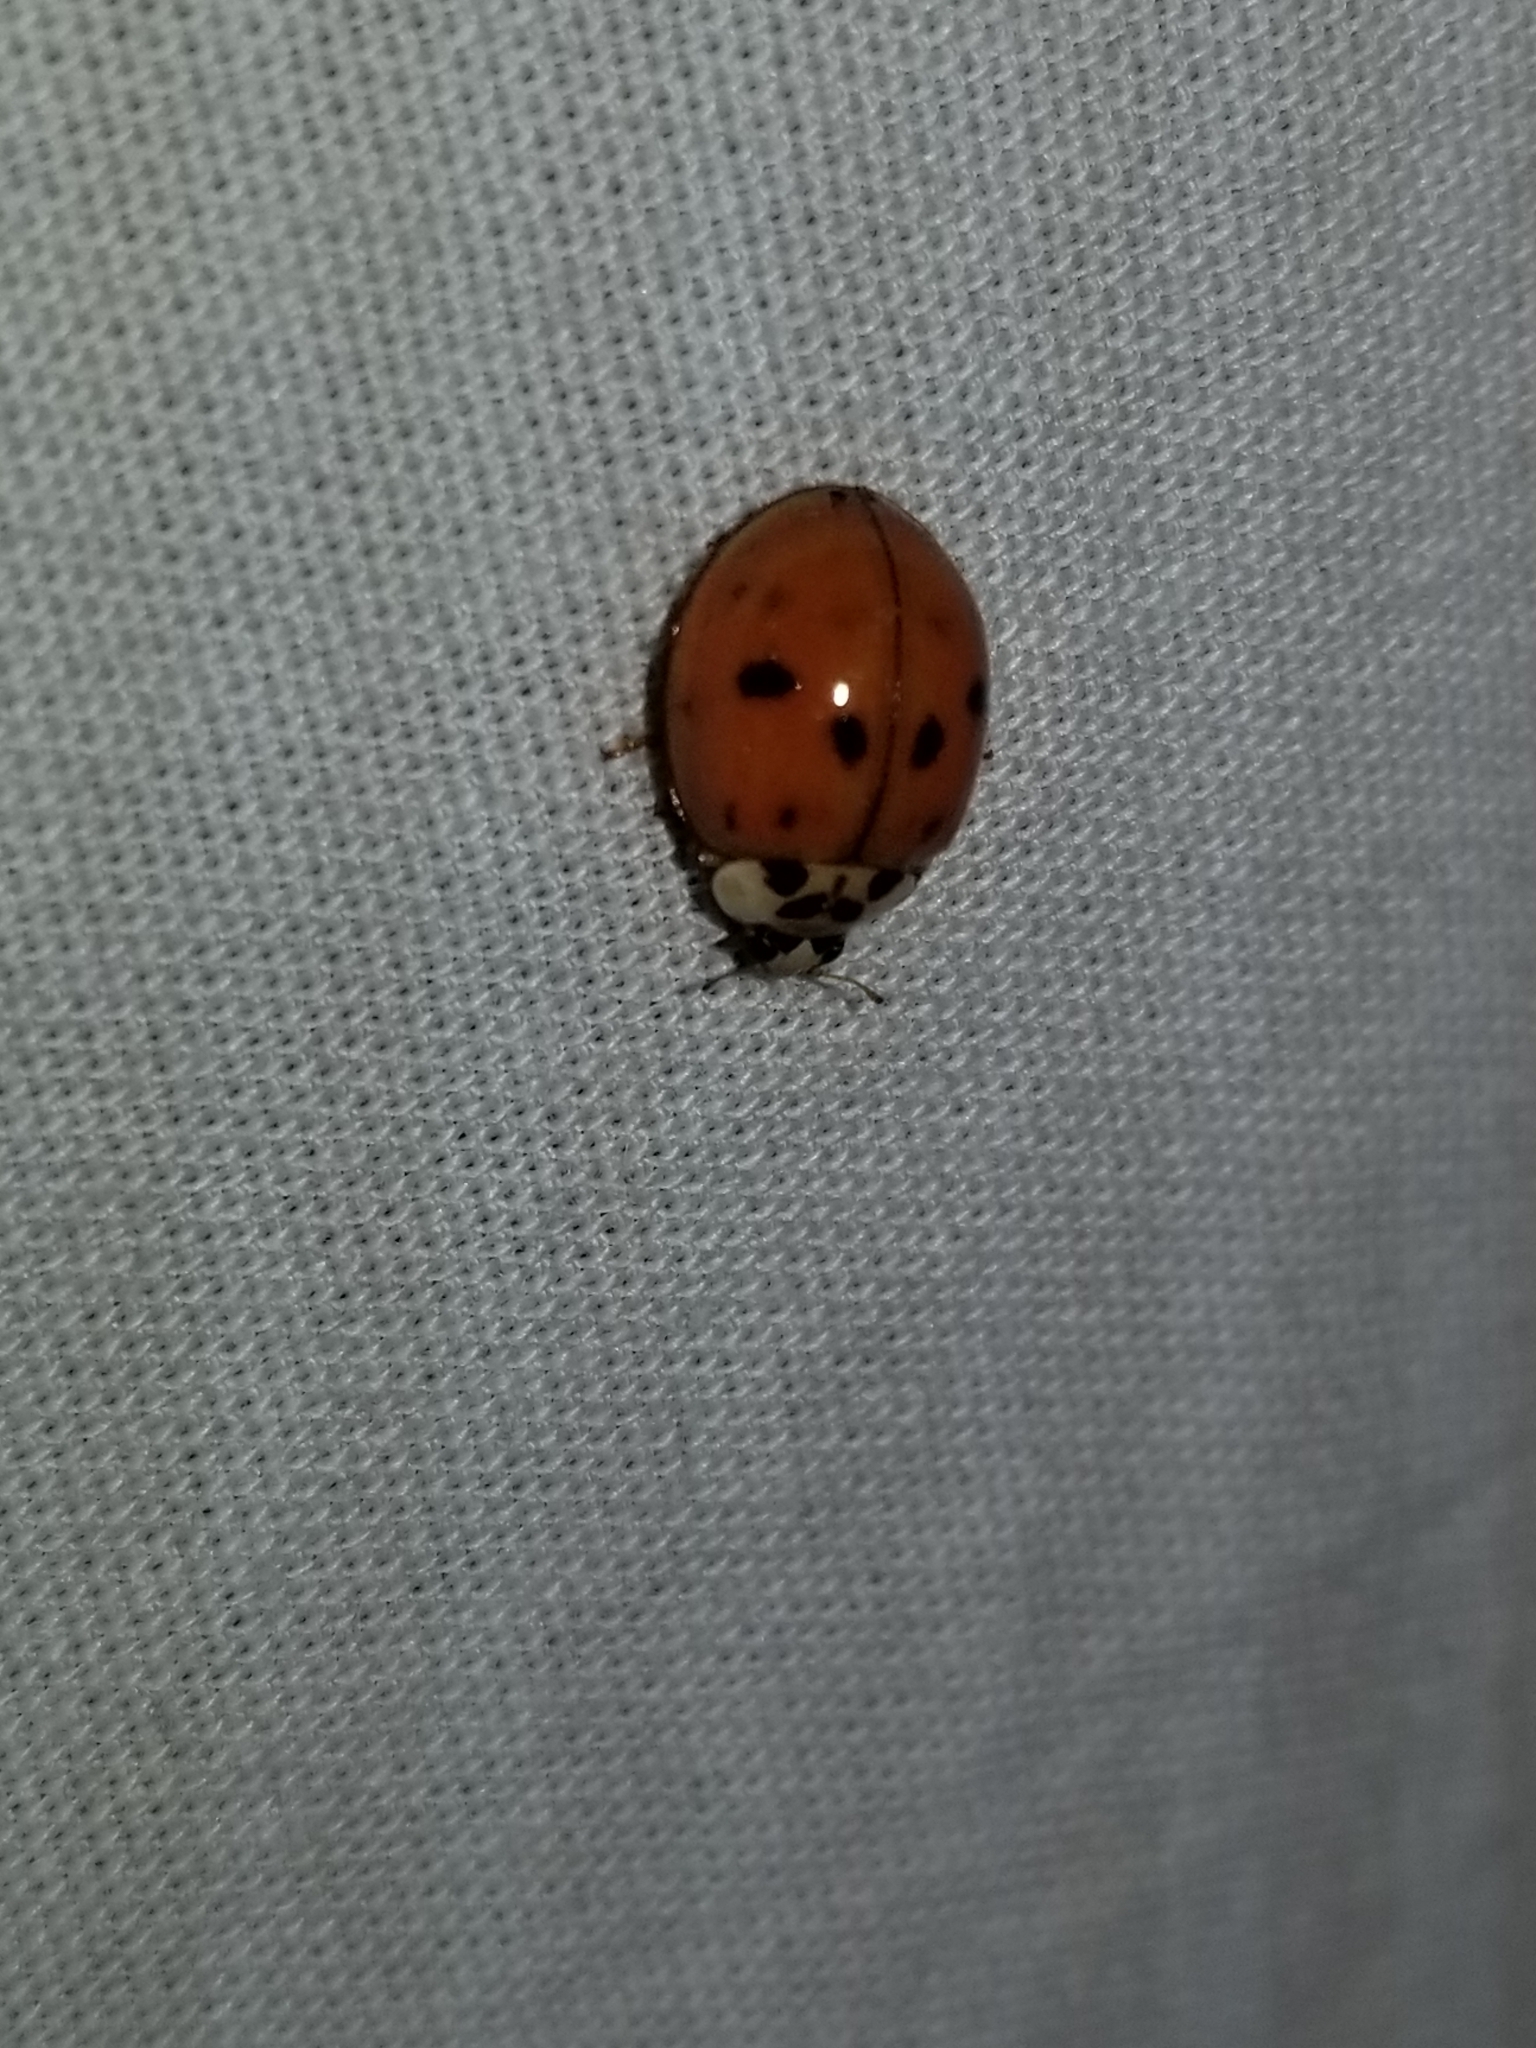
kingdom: Animalia
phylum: Arthropoda
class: Insecta
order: Coleoptera
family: Coccinellidae
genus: Harmonia
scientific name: Harmonia axyridis
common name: Harlequin ladybird
